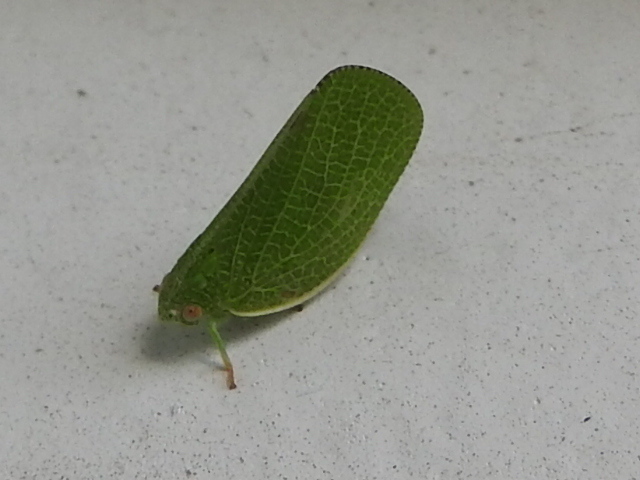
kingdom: Animalia
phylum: Arthropoda
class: Insecta
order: Hemiptera
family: Acanaloniidae
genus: Acanalonia
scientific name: Acanalonia conica
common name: Green cone-headed planthopper
